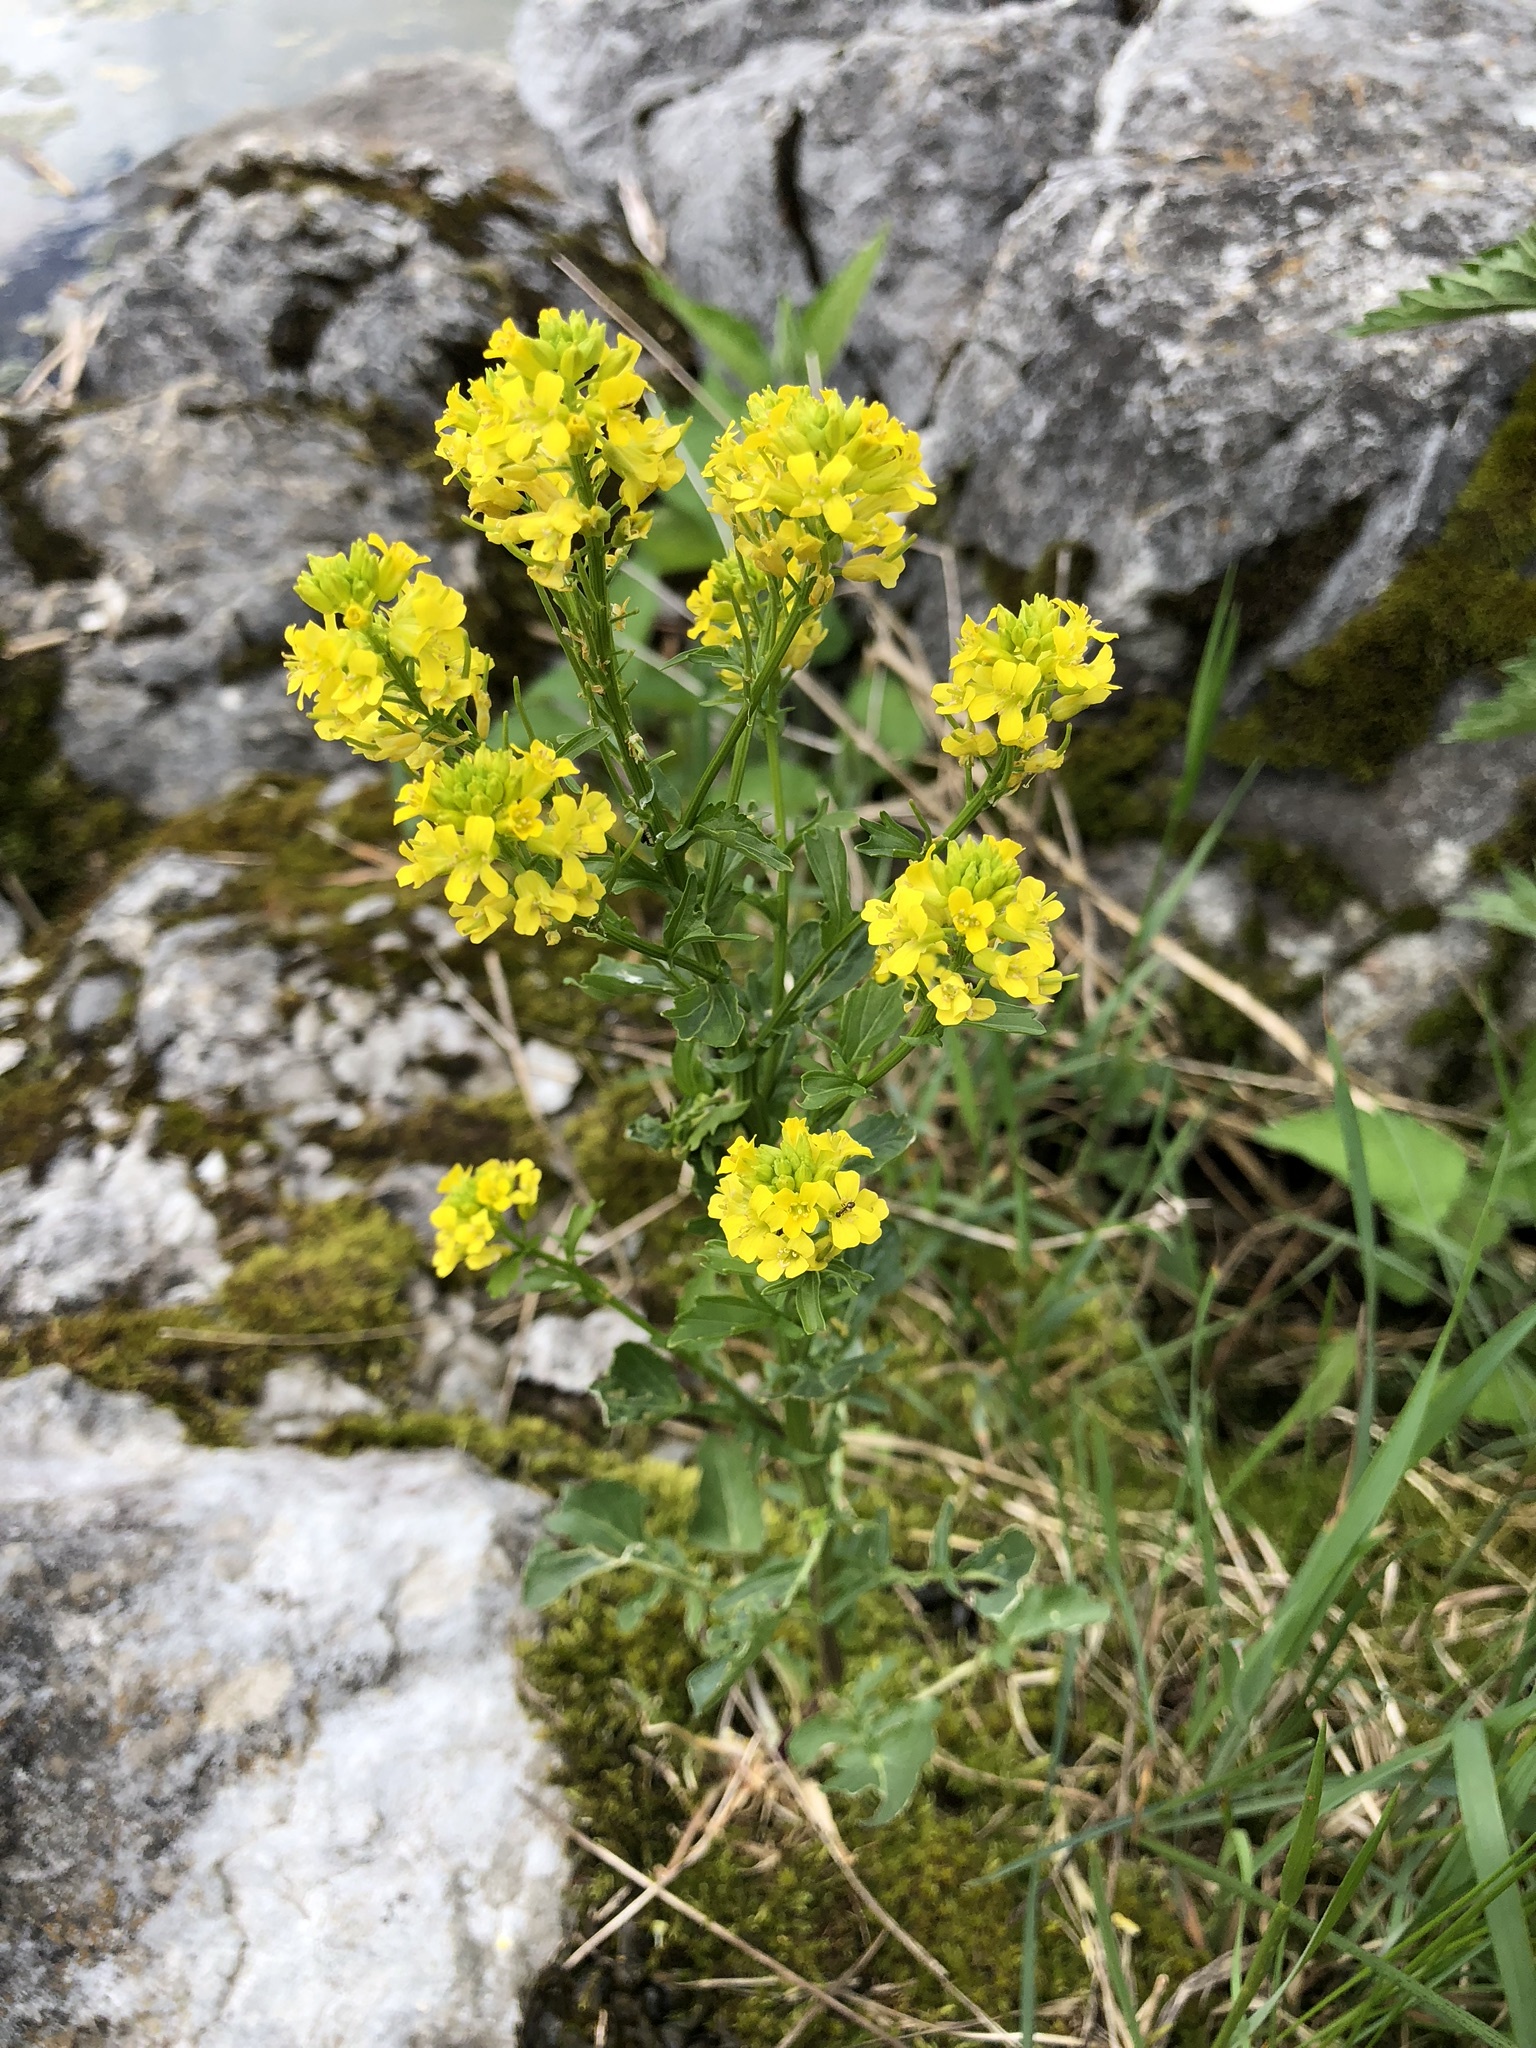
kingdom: Plantae
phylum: Tracheophyta
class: Magnoliopsida
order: Brassicales
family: Brassicaceae
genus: Barbarea
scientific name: Barbarea vulgaris
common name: Cressy-greens
